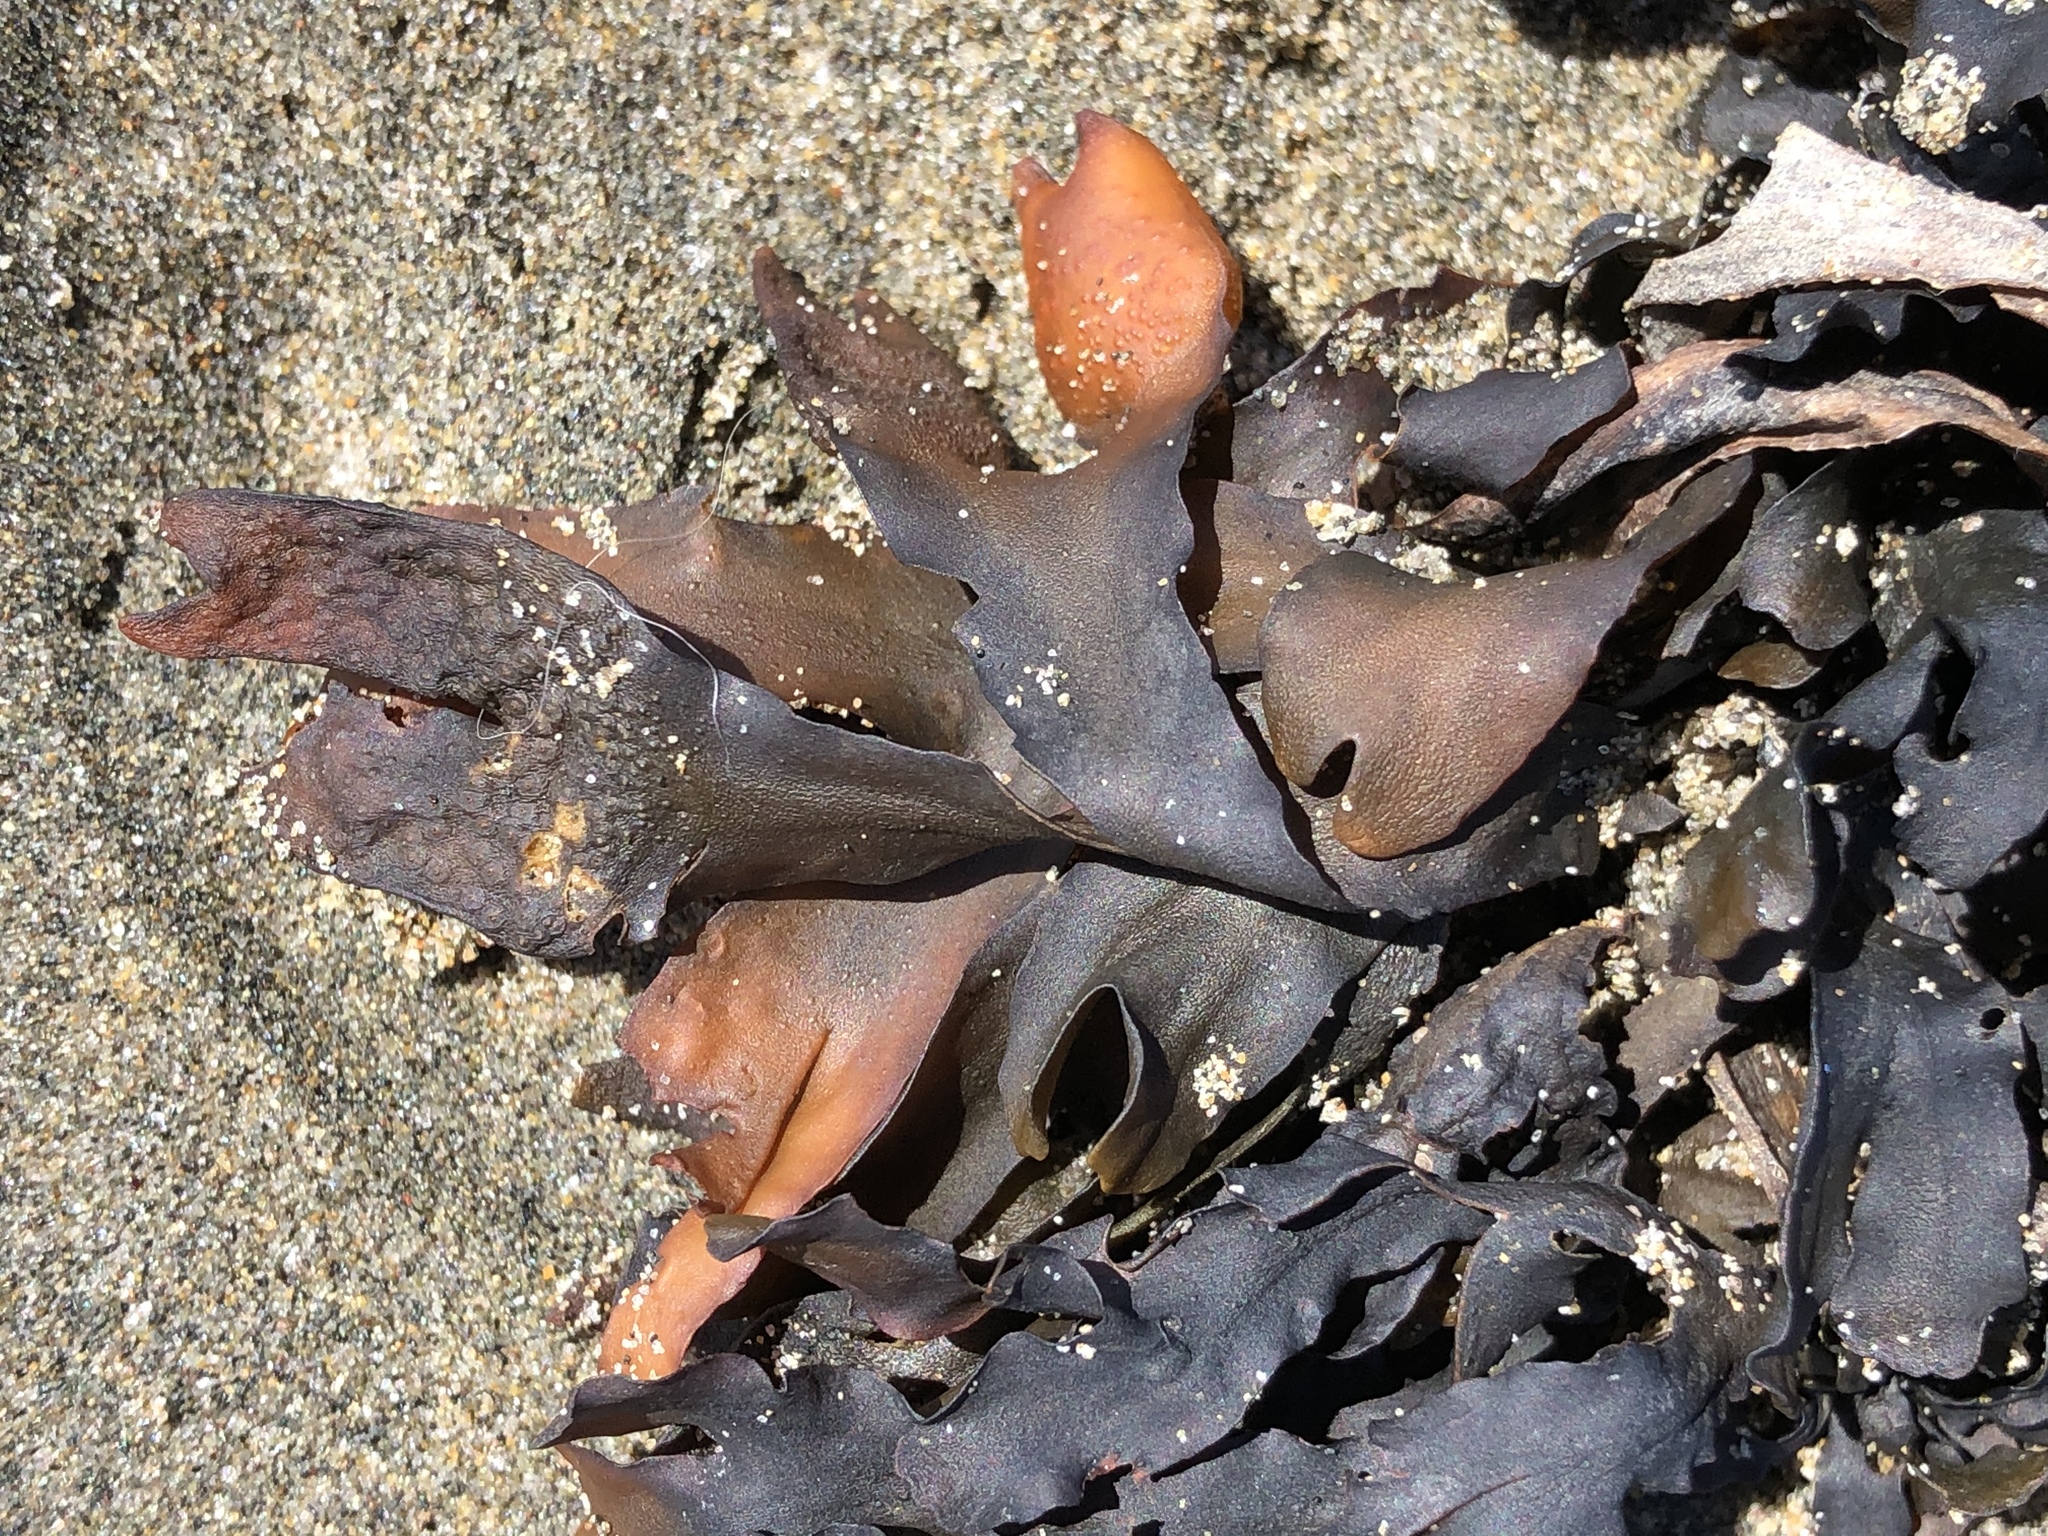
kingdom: Chromista
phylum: Ochrophyta
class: Phaeophyceae
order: Fucales
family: Fucaceae
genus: Fucus
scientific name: Fucus distichus
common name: Rockweed
